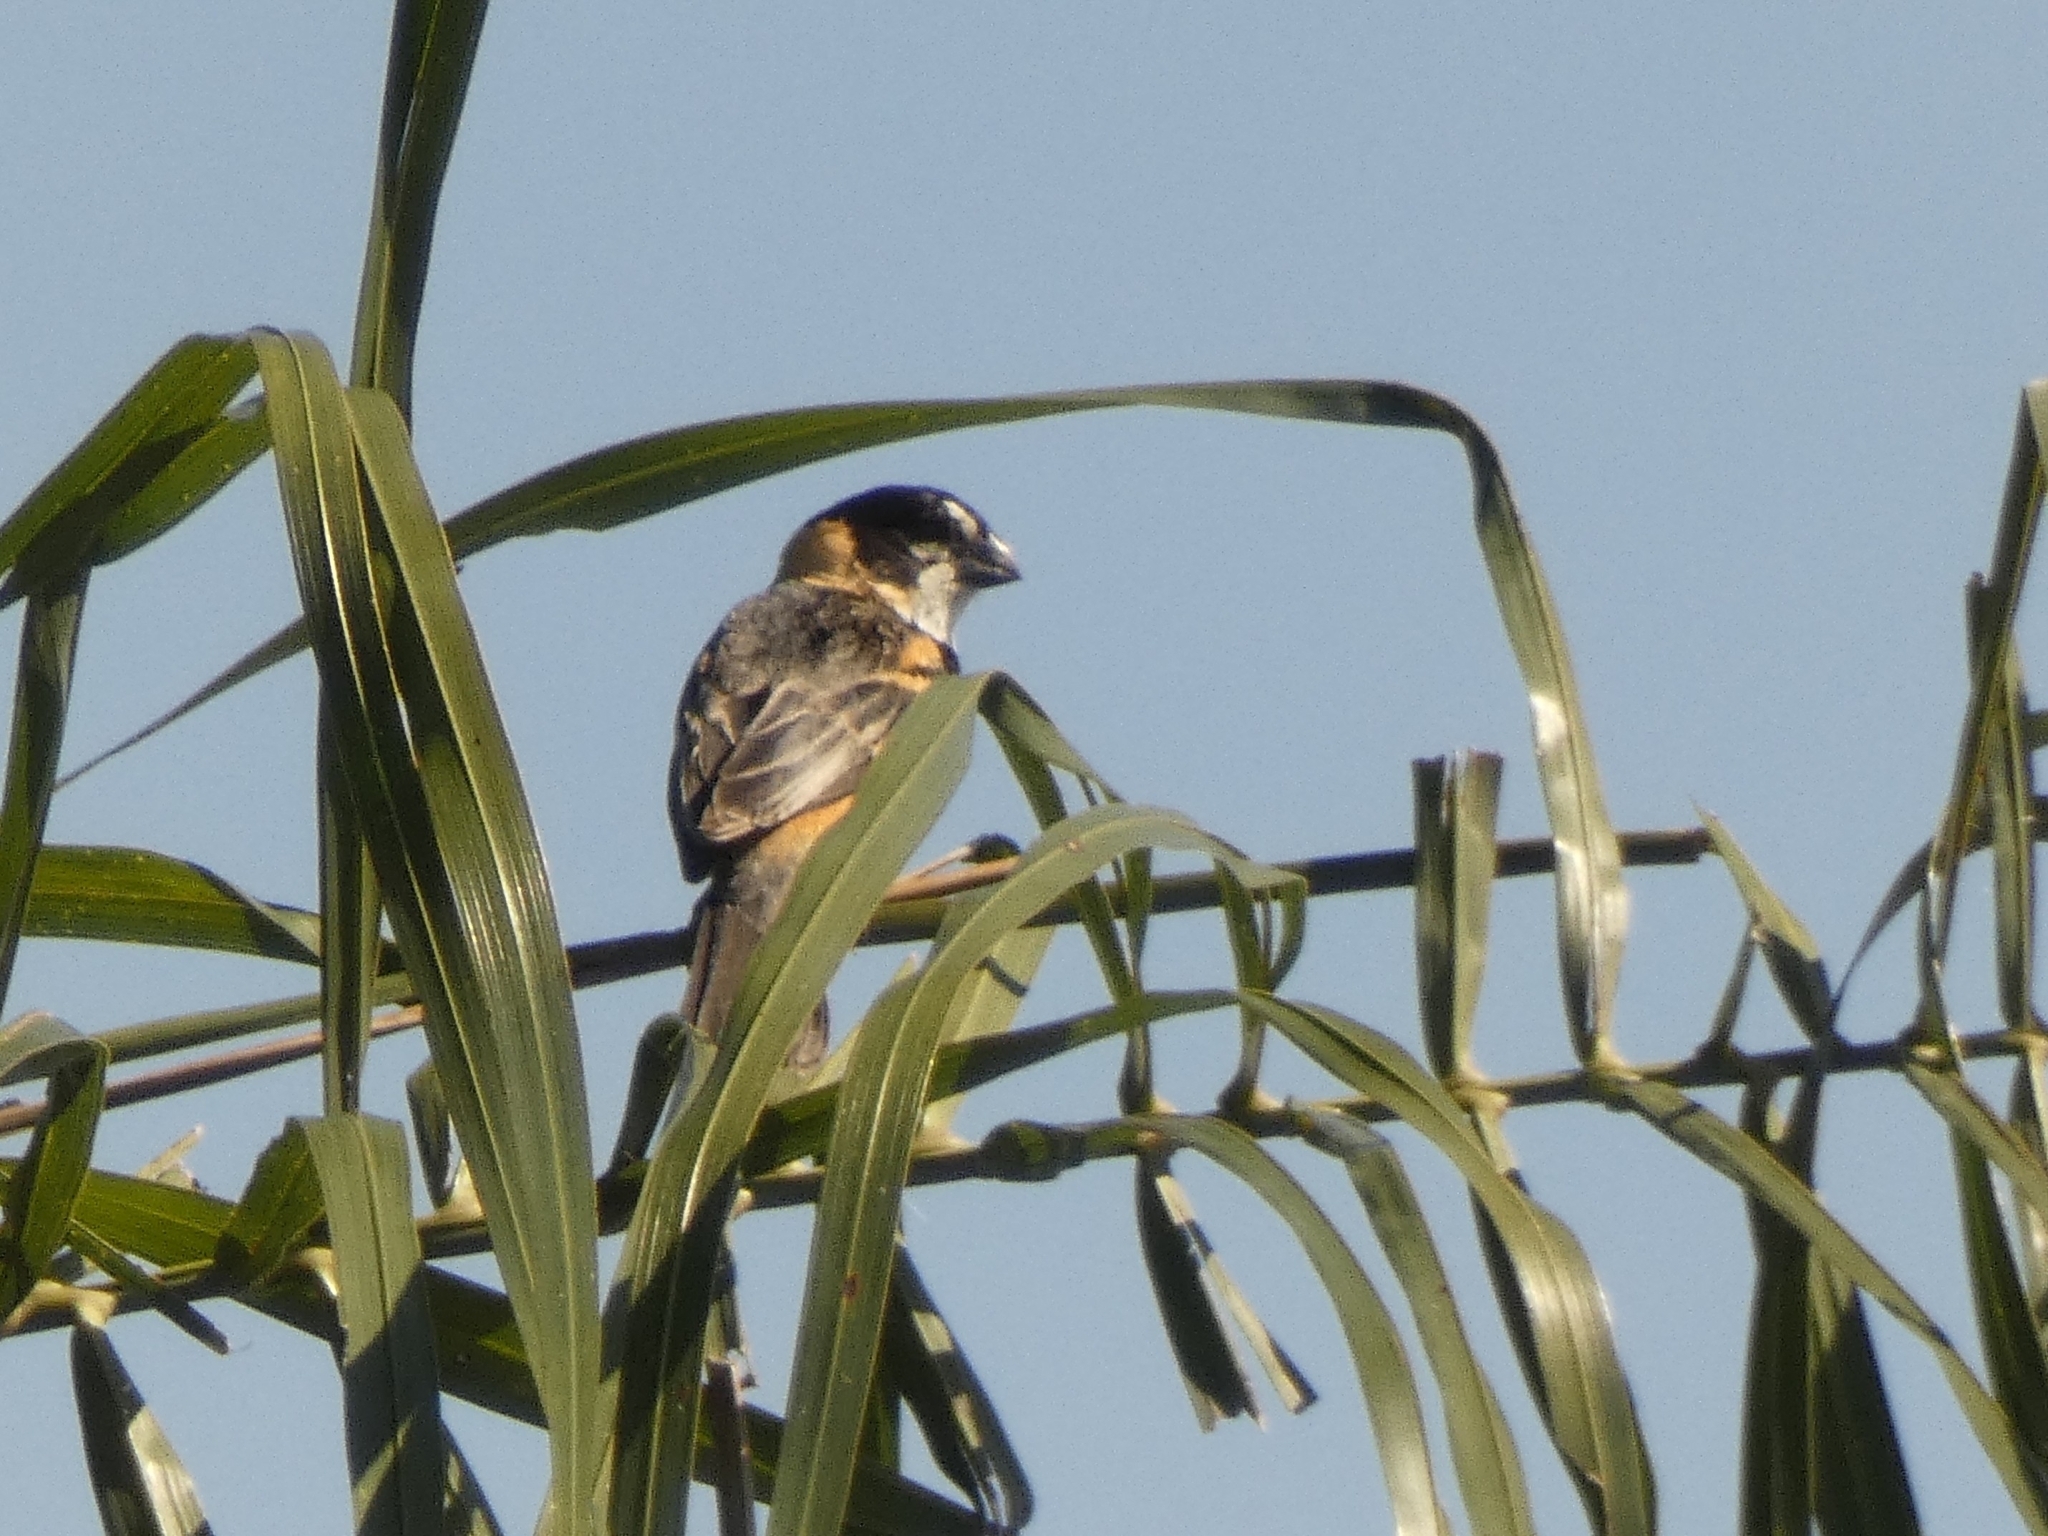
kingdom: Animalia
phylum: Chordata
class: Aves
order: Passeriformes
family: Thraupidae
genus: Sporophila
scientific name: Sporophila collaris
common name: Rusty-collared seedeater
